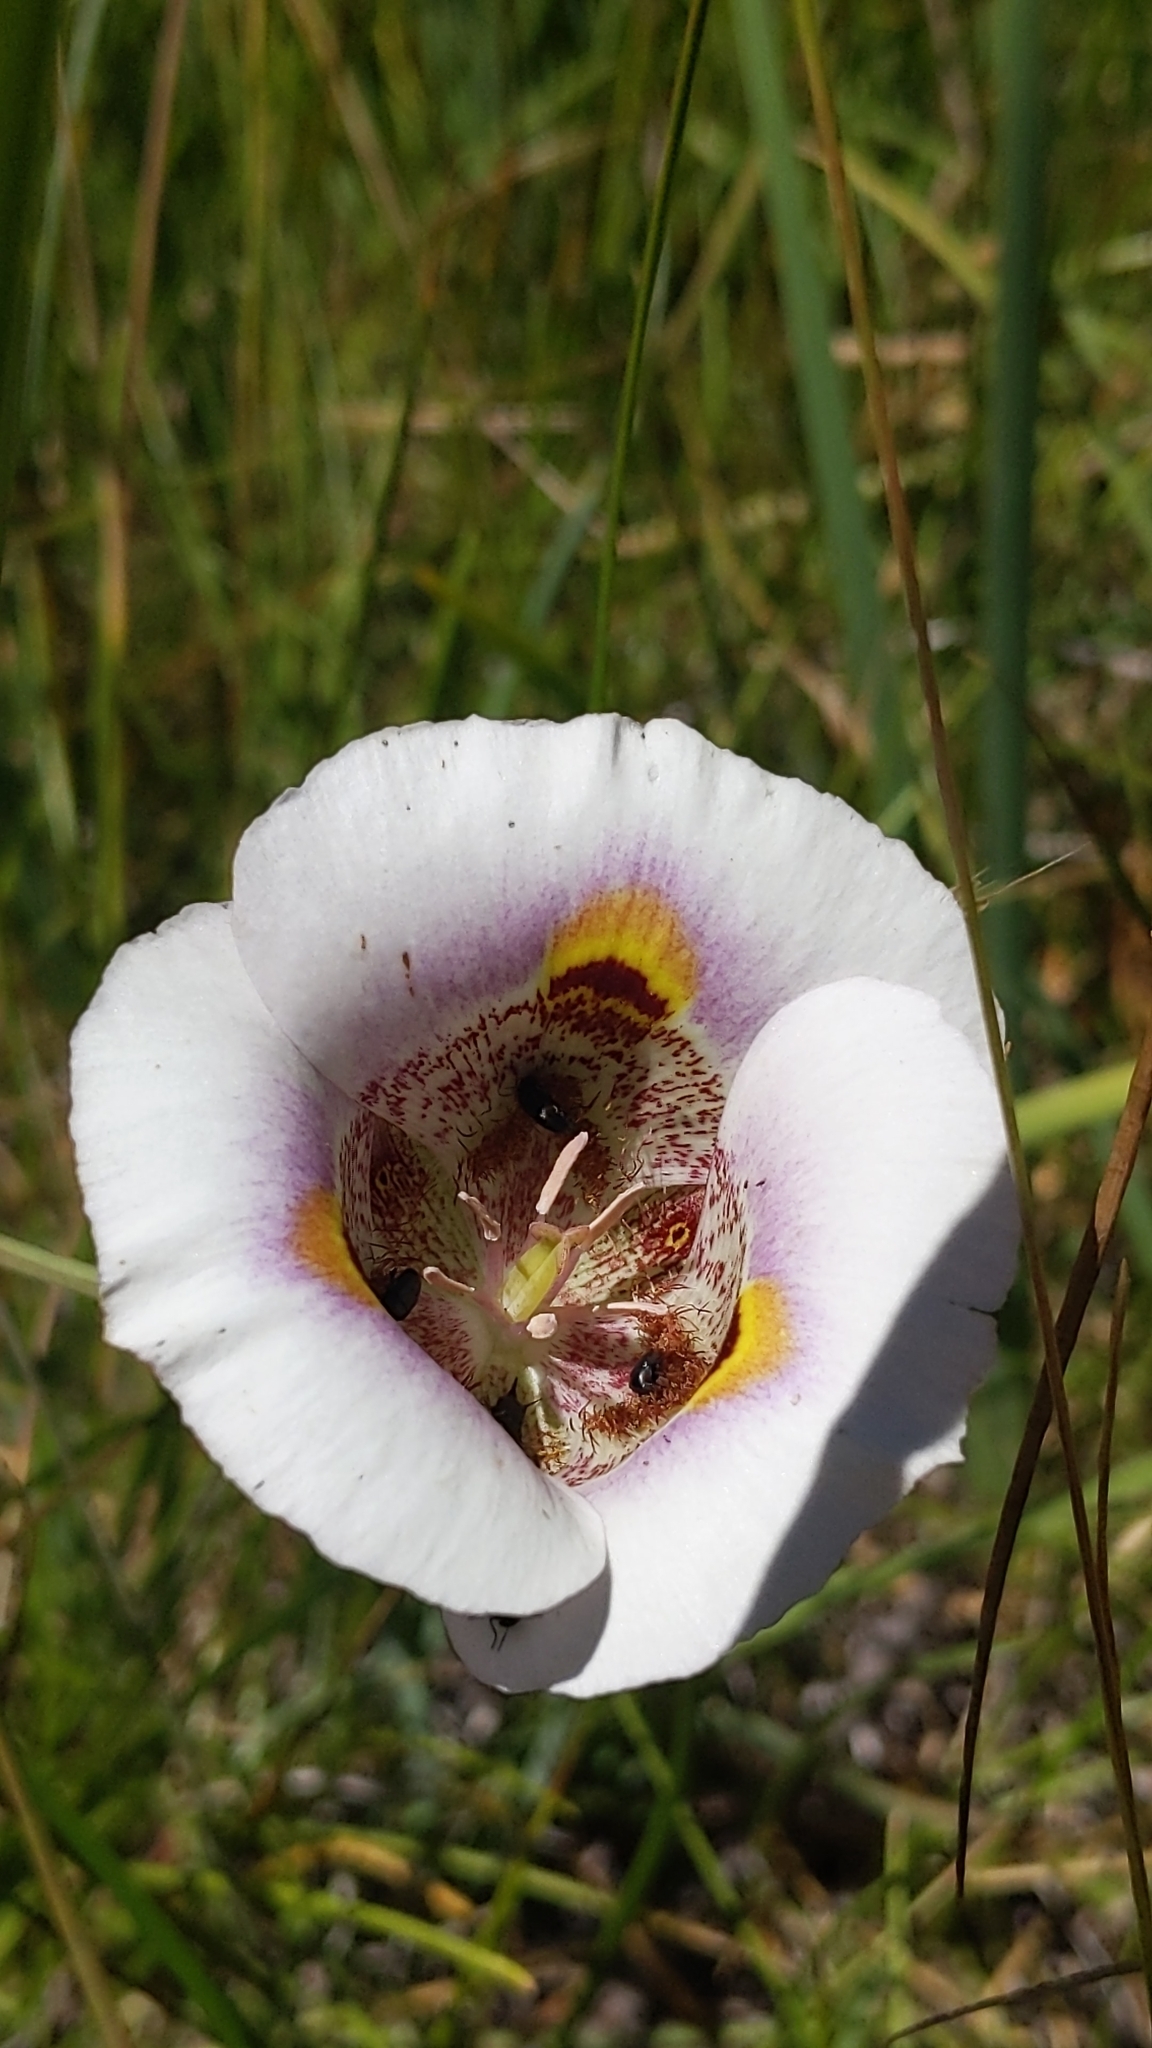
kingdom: Plantae
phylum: Tracheophyta
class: Liliopsida
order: Liliales
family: Liliaceae
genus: Calochortus
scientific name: Calochortus superbus
